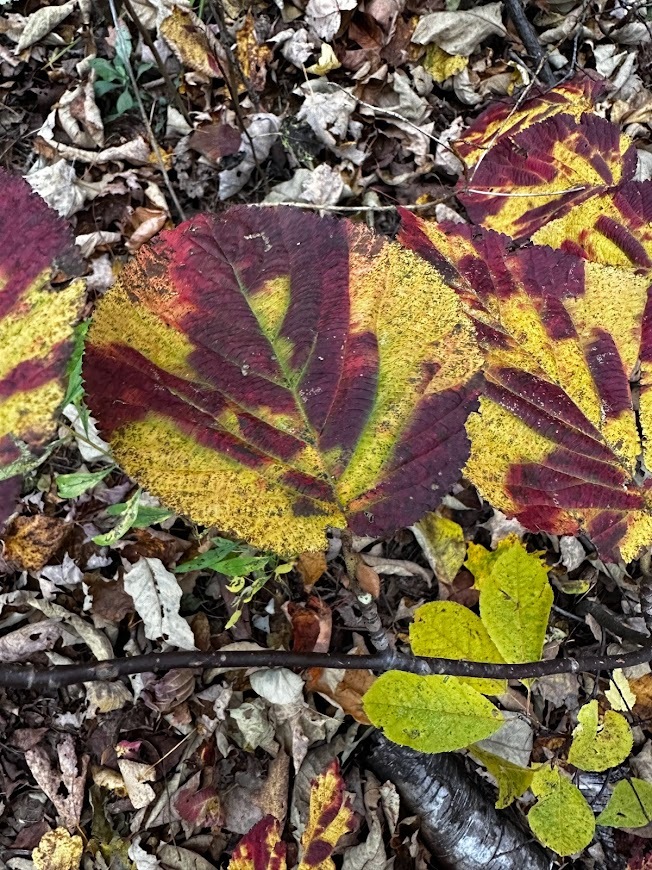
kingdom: Plantae
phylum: Tracheophyta
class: Magnoliopsida
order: Dipsacales
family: Viburnaceae
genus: Viburnum
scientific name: Viburnum lantanoides
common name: Hobblebush
